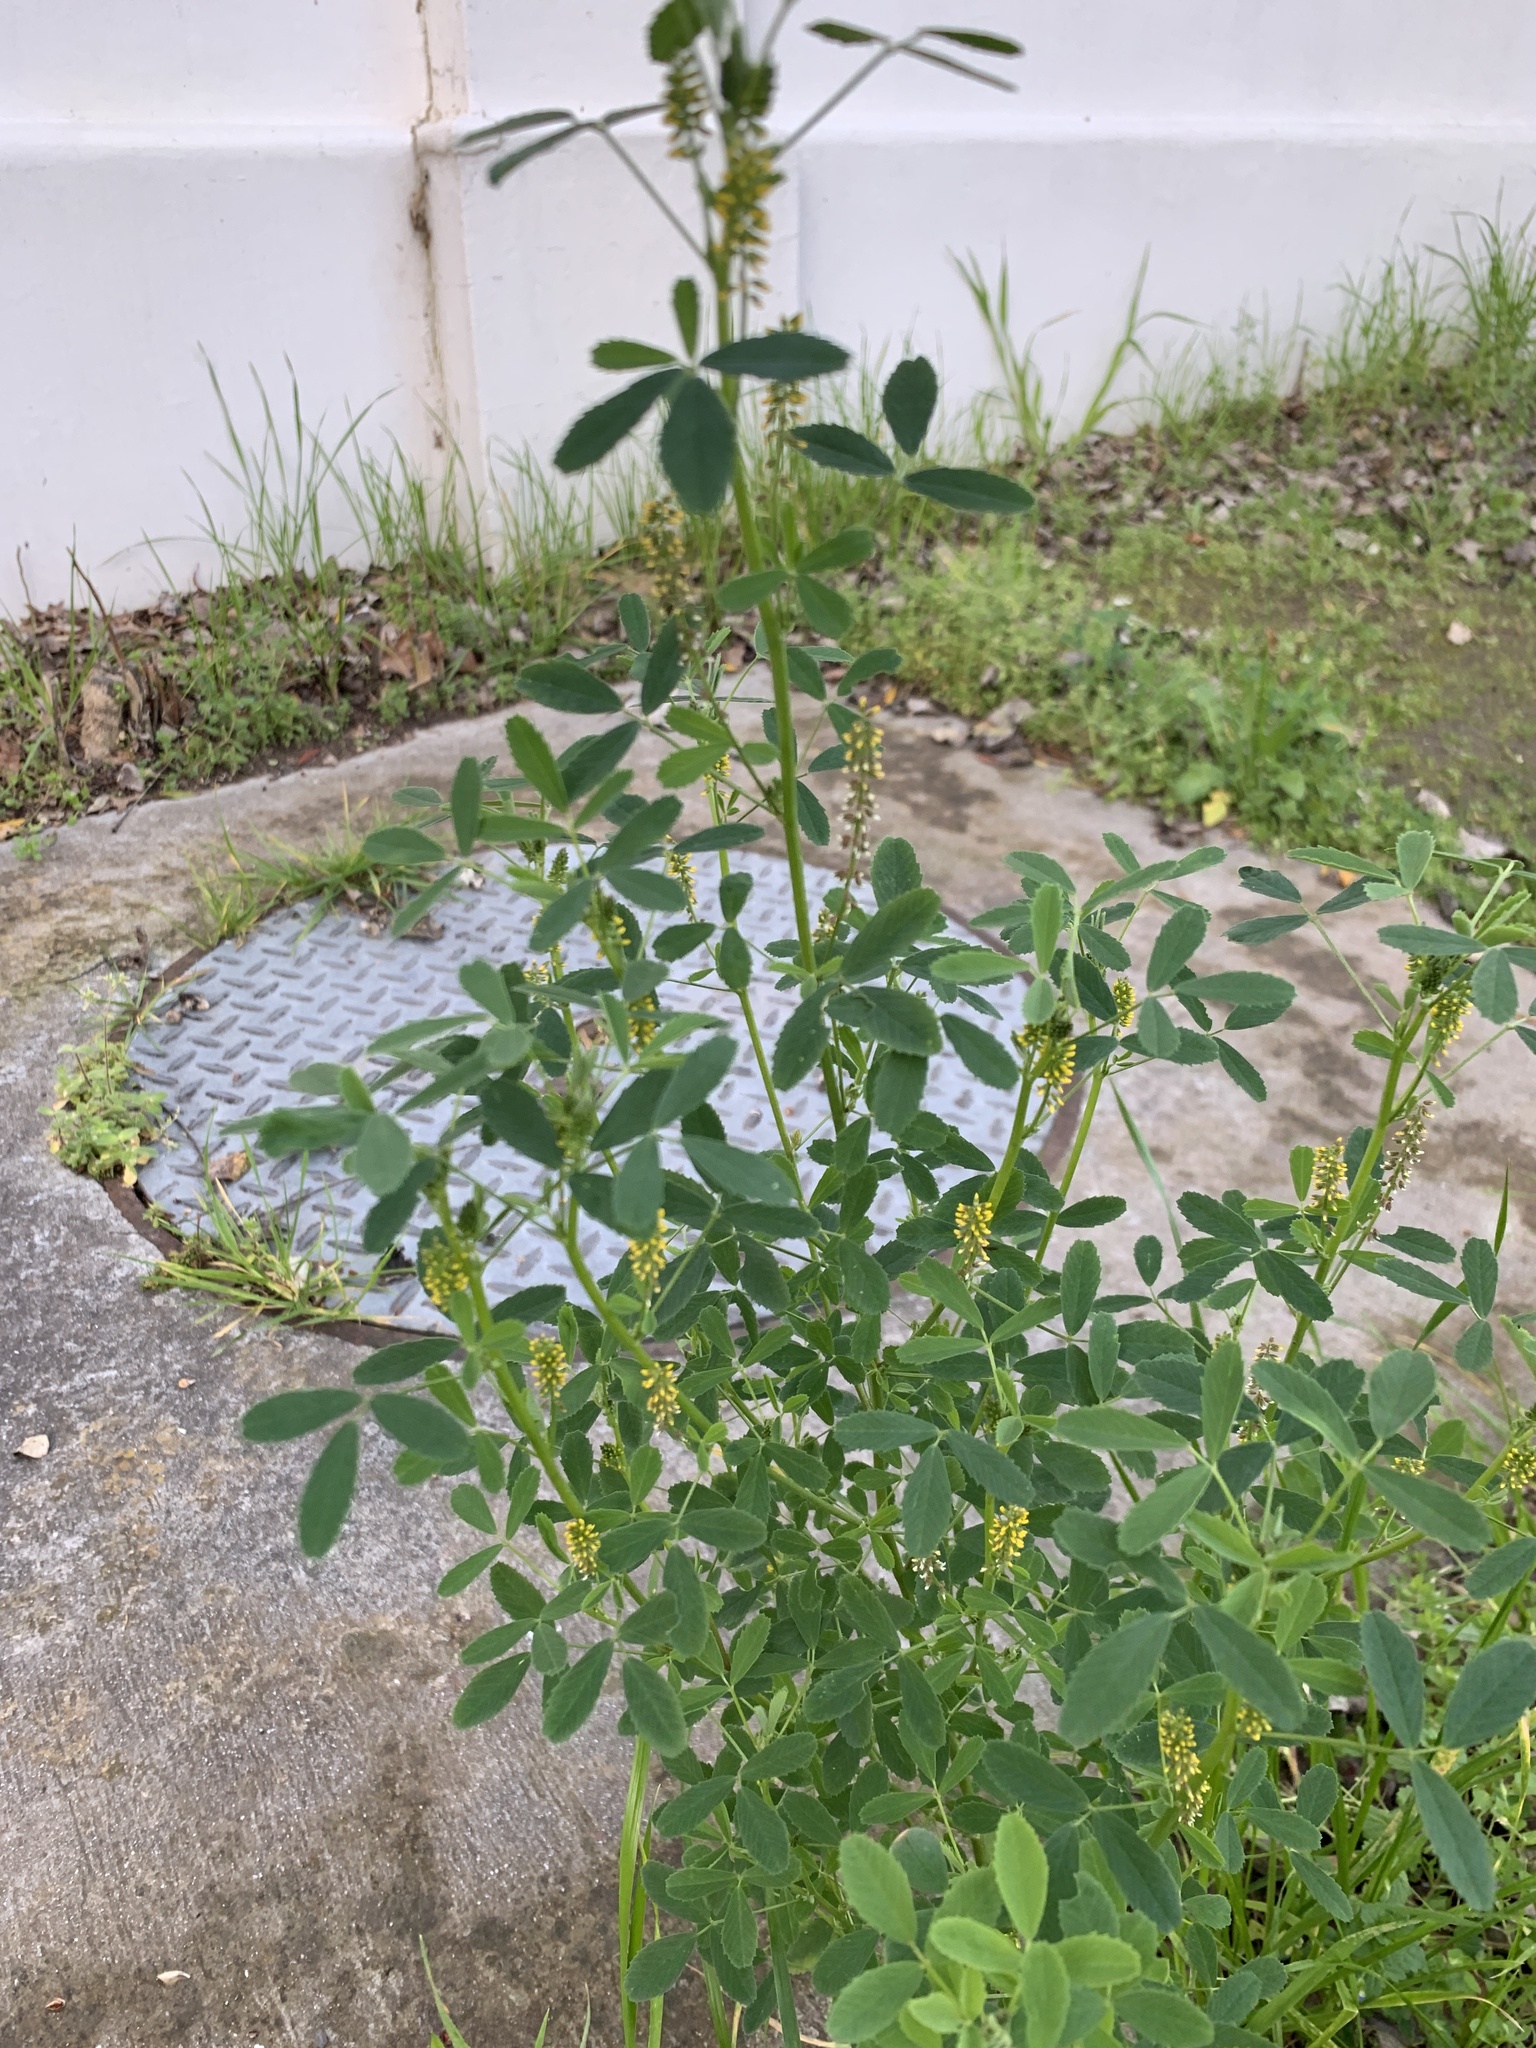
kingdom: Plantae
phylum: Tracheophyta
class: Magnoliopsida
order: Fabales
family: Fabaceae
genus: Melilotus
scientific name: Melilotus indicus
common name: Small melilot
